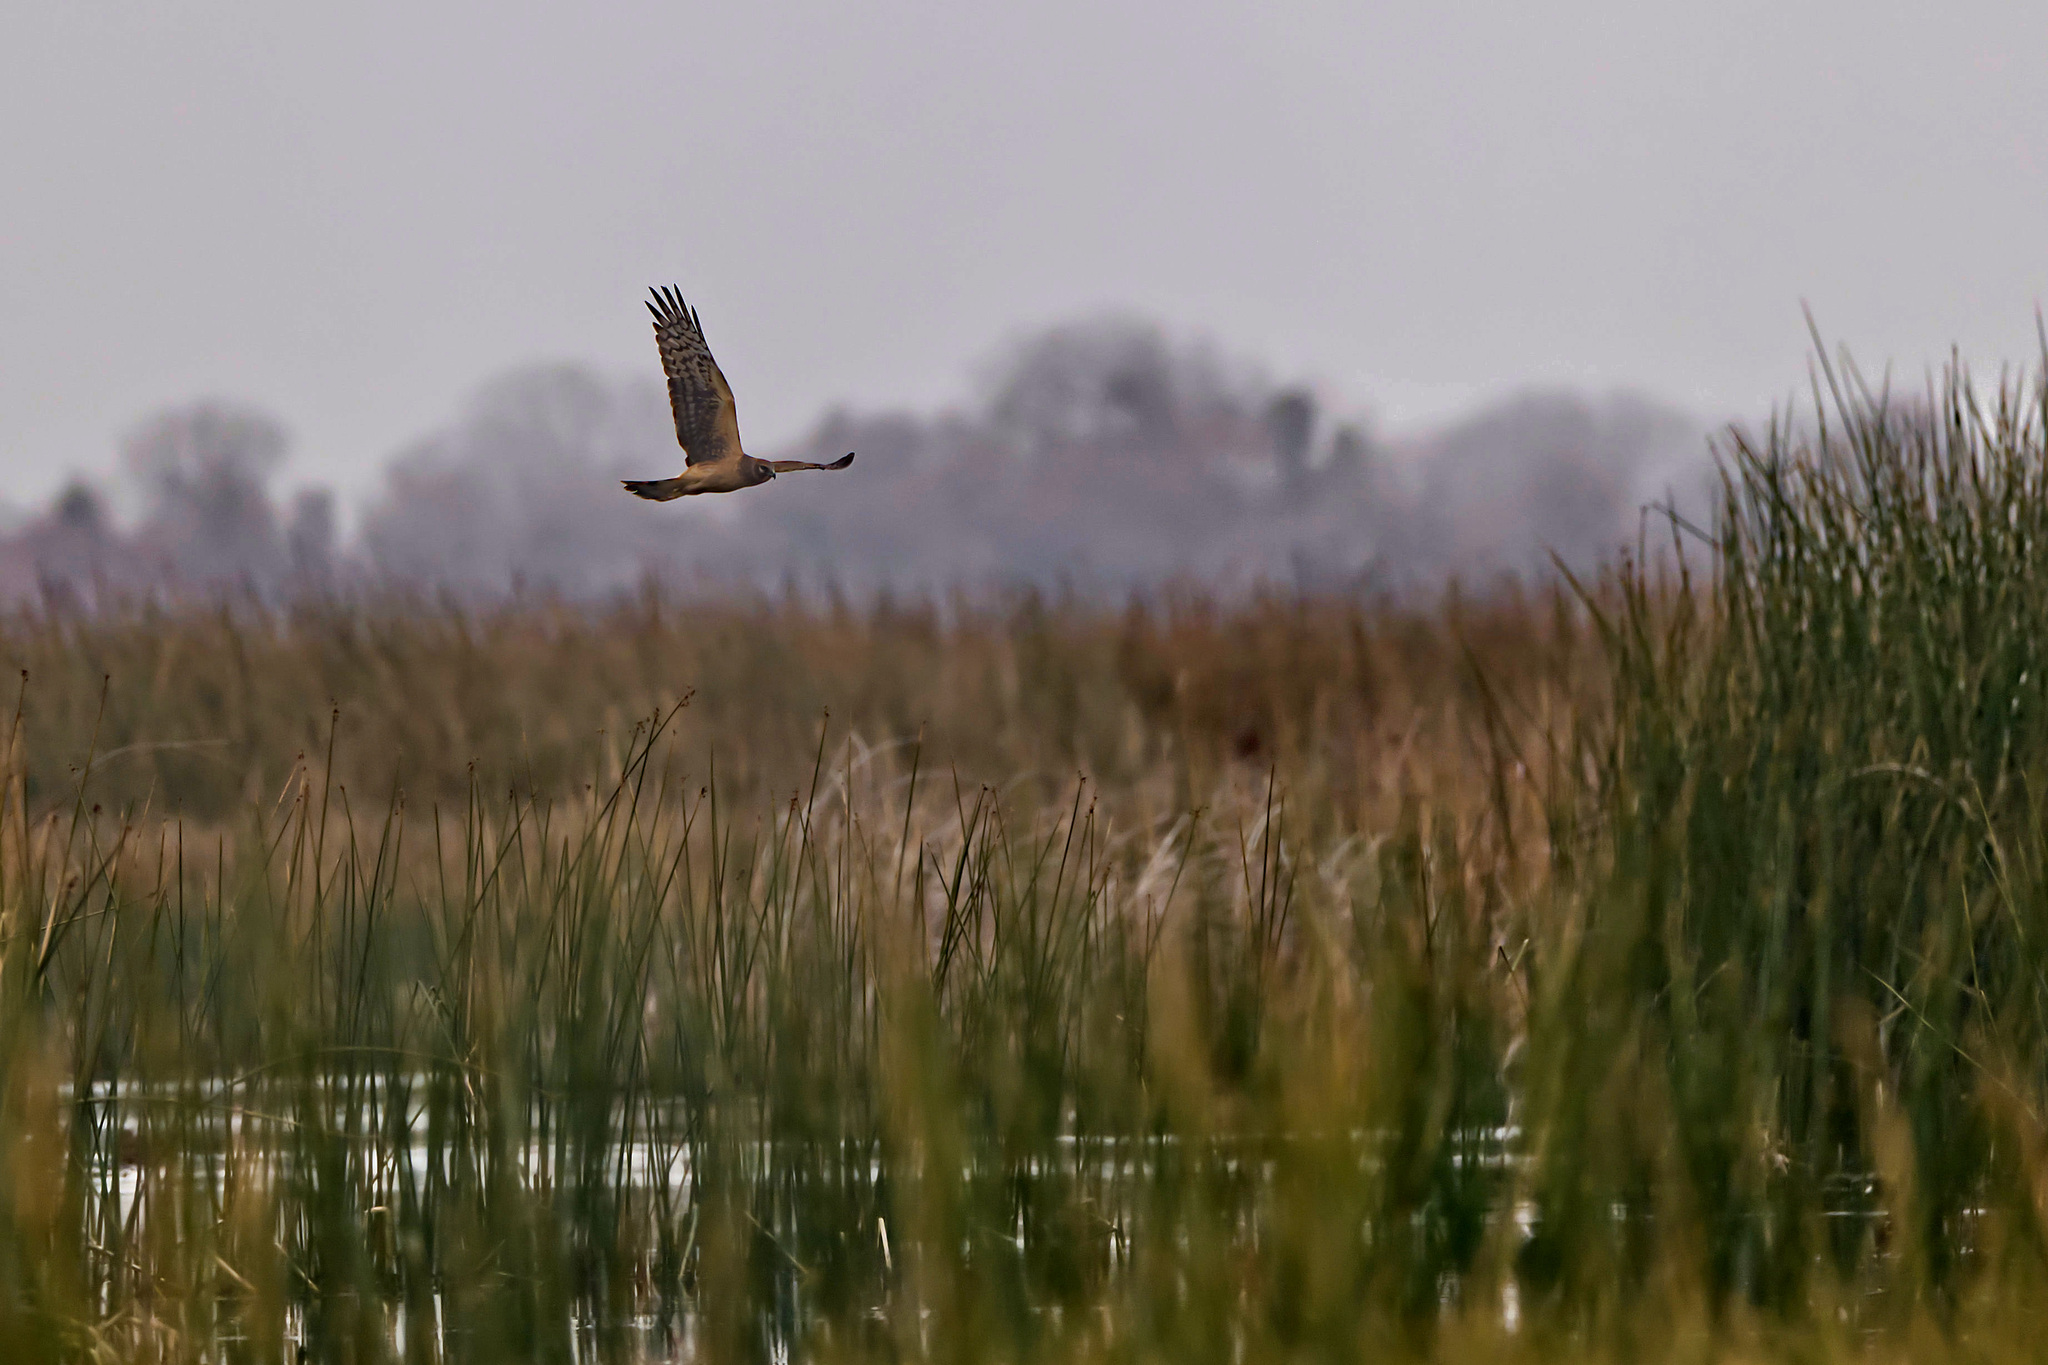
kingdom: Animalia
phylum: Chordata
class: Aves
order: Accipitriformes
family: Accipitridae
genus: Circus
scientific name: Circus cyaneus
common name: Hen harrier
